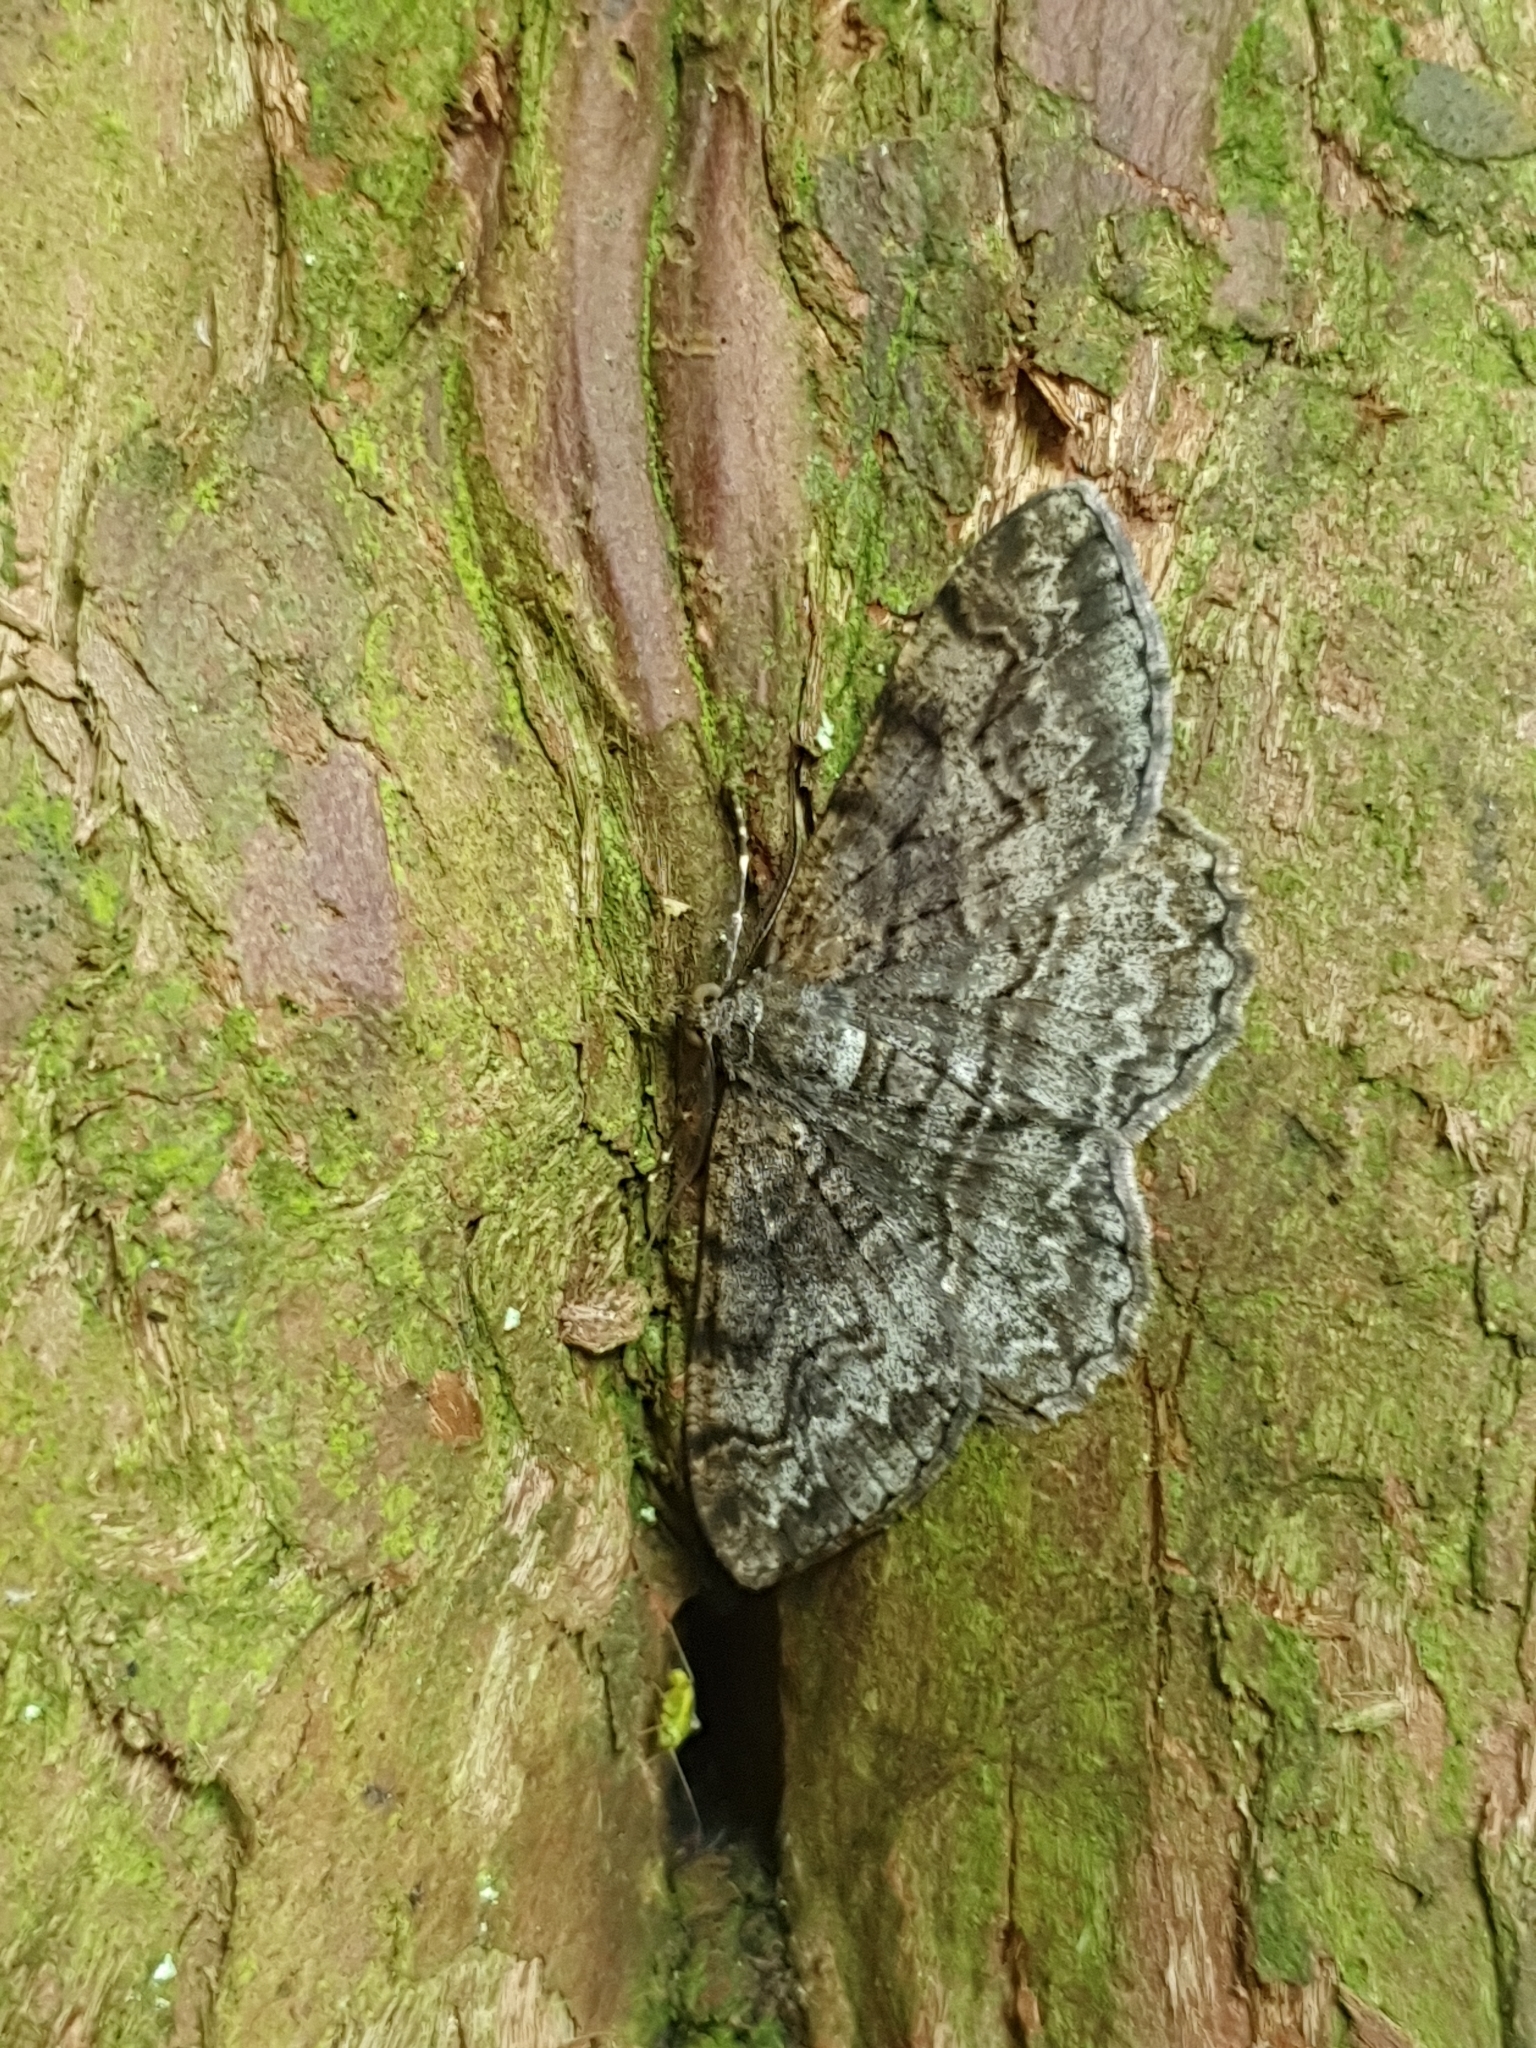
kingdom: Animalia
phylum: Arthropoda
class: Insecta
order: Lepidoptera
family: Geometridae
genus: Alcis
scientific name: Alcis repandata
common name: Mottled beauty
